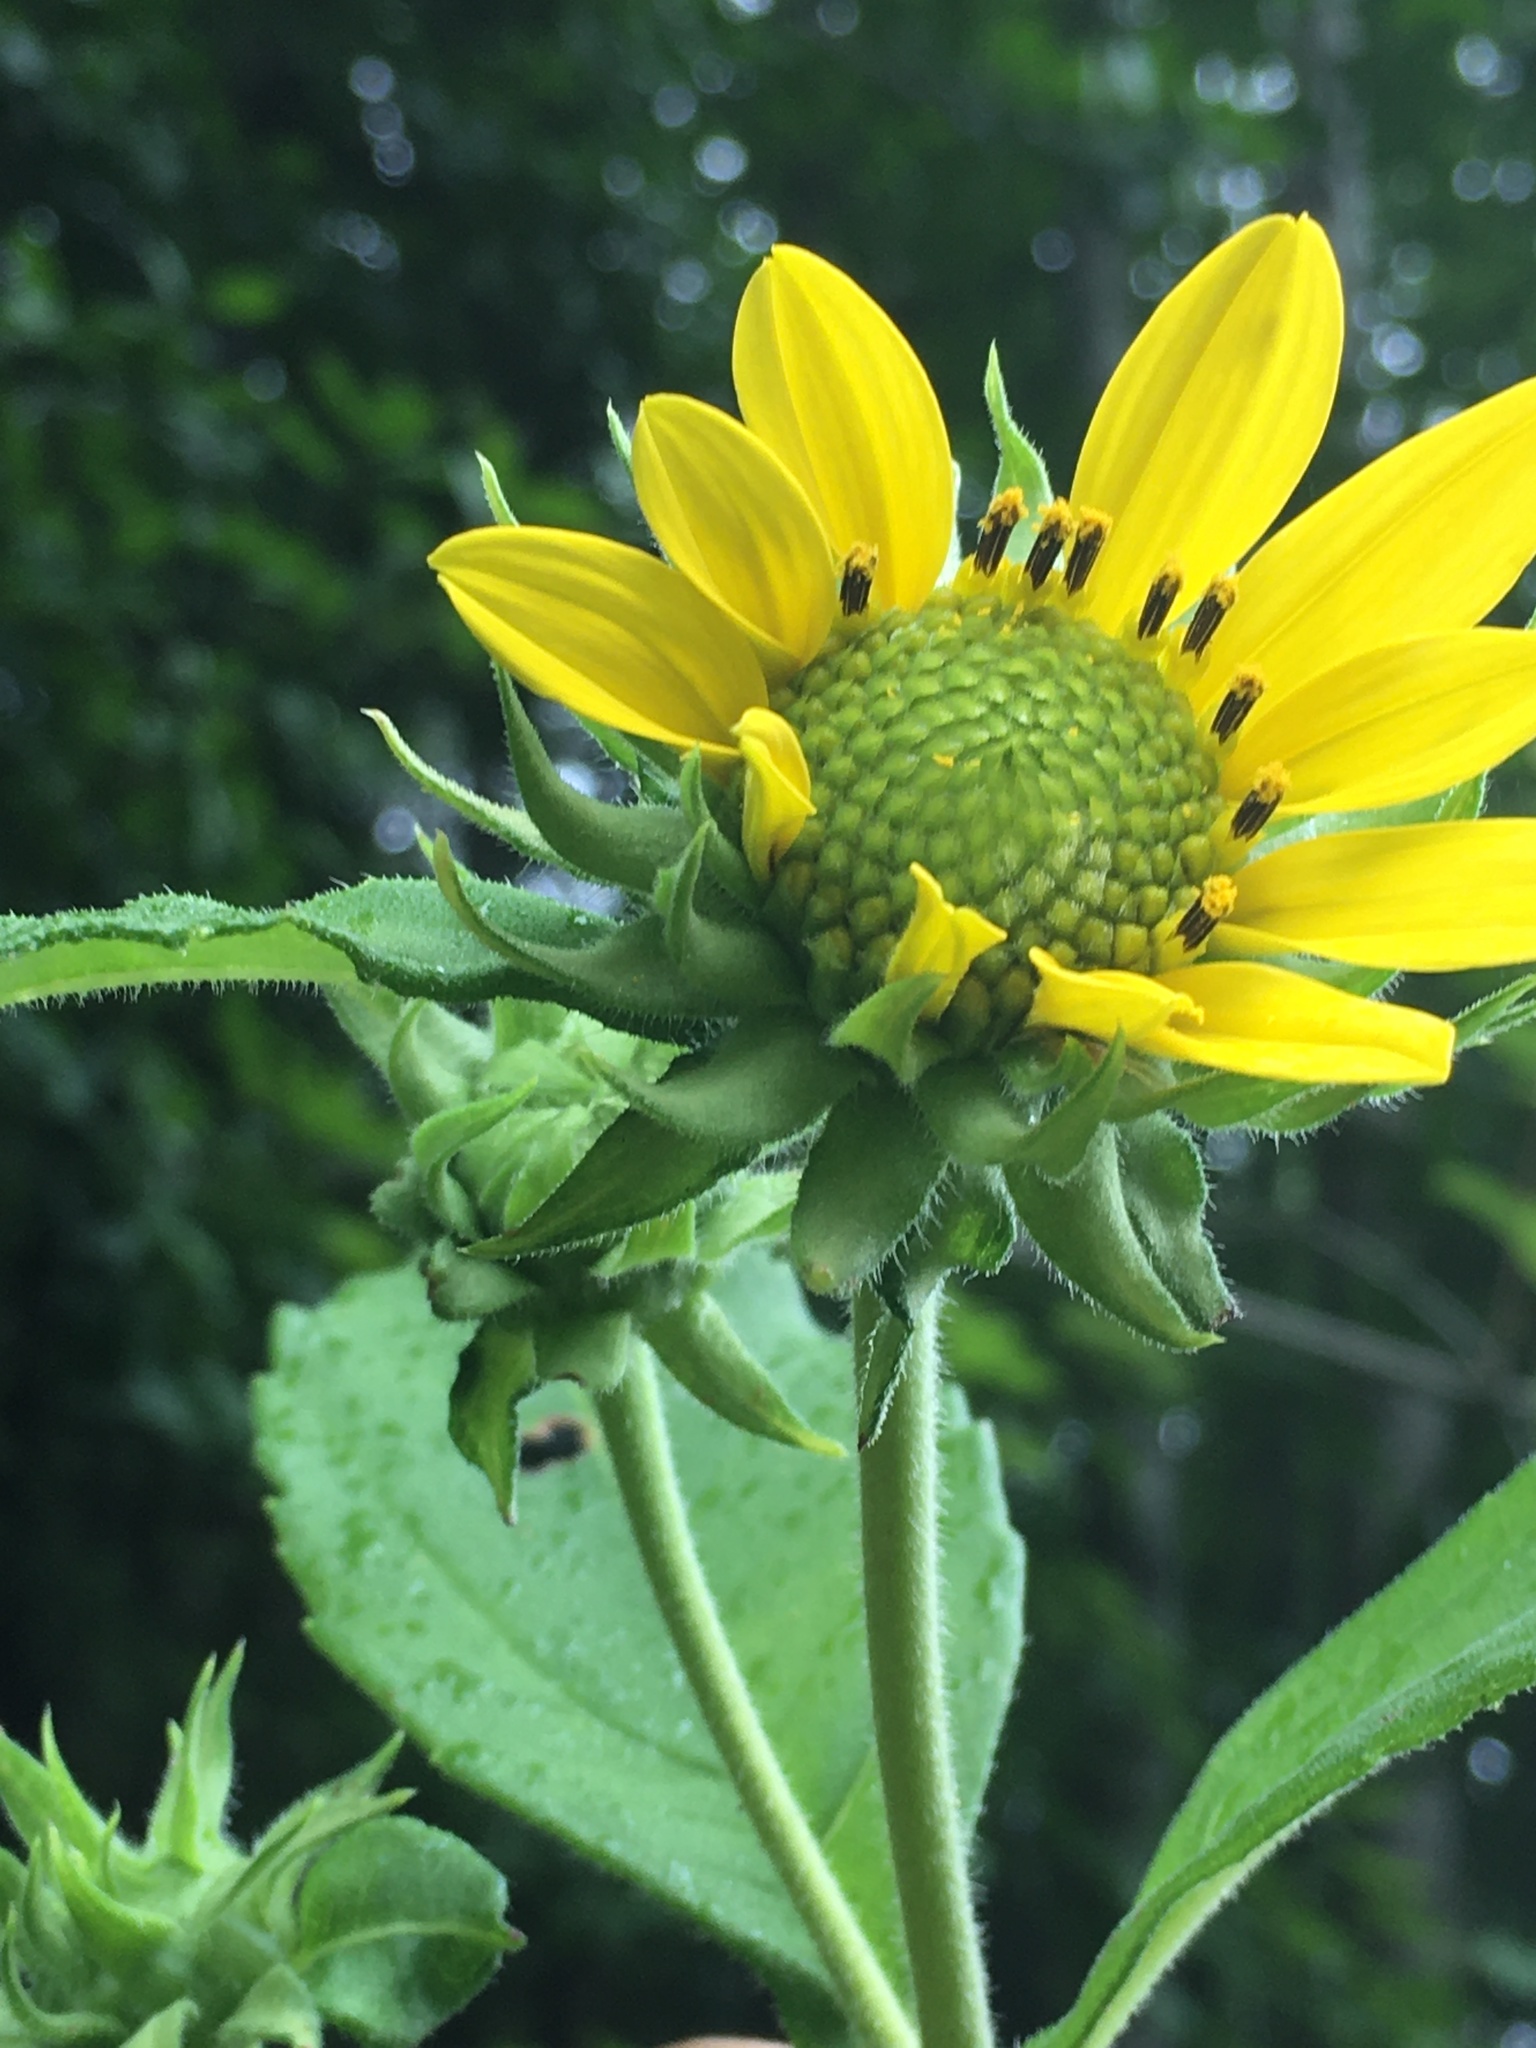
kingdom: Plantae
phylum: Tracheophyta
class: Magnoliopsida
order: Asterales
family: Asteraceae
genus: Helianthus
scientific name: Helianthus resinosus
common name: Resin-dot sunflower
